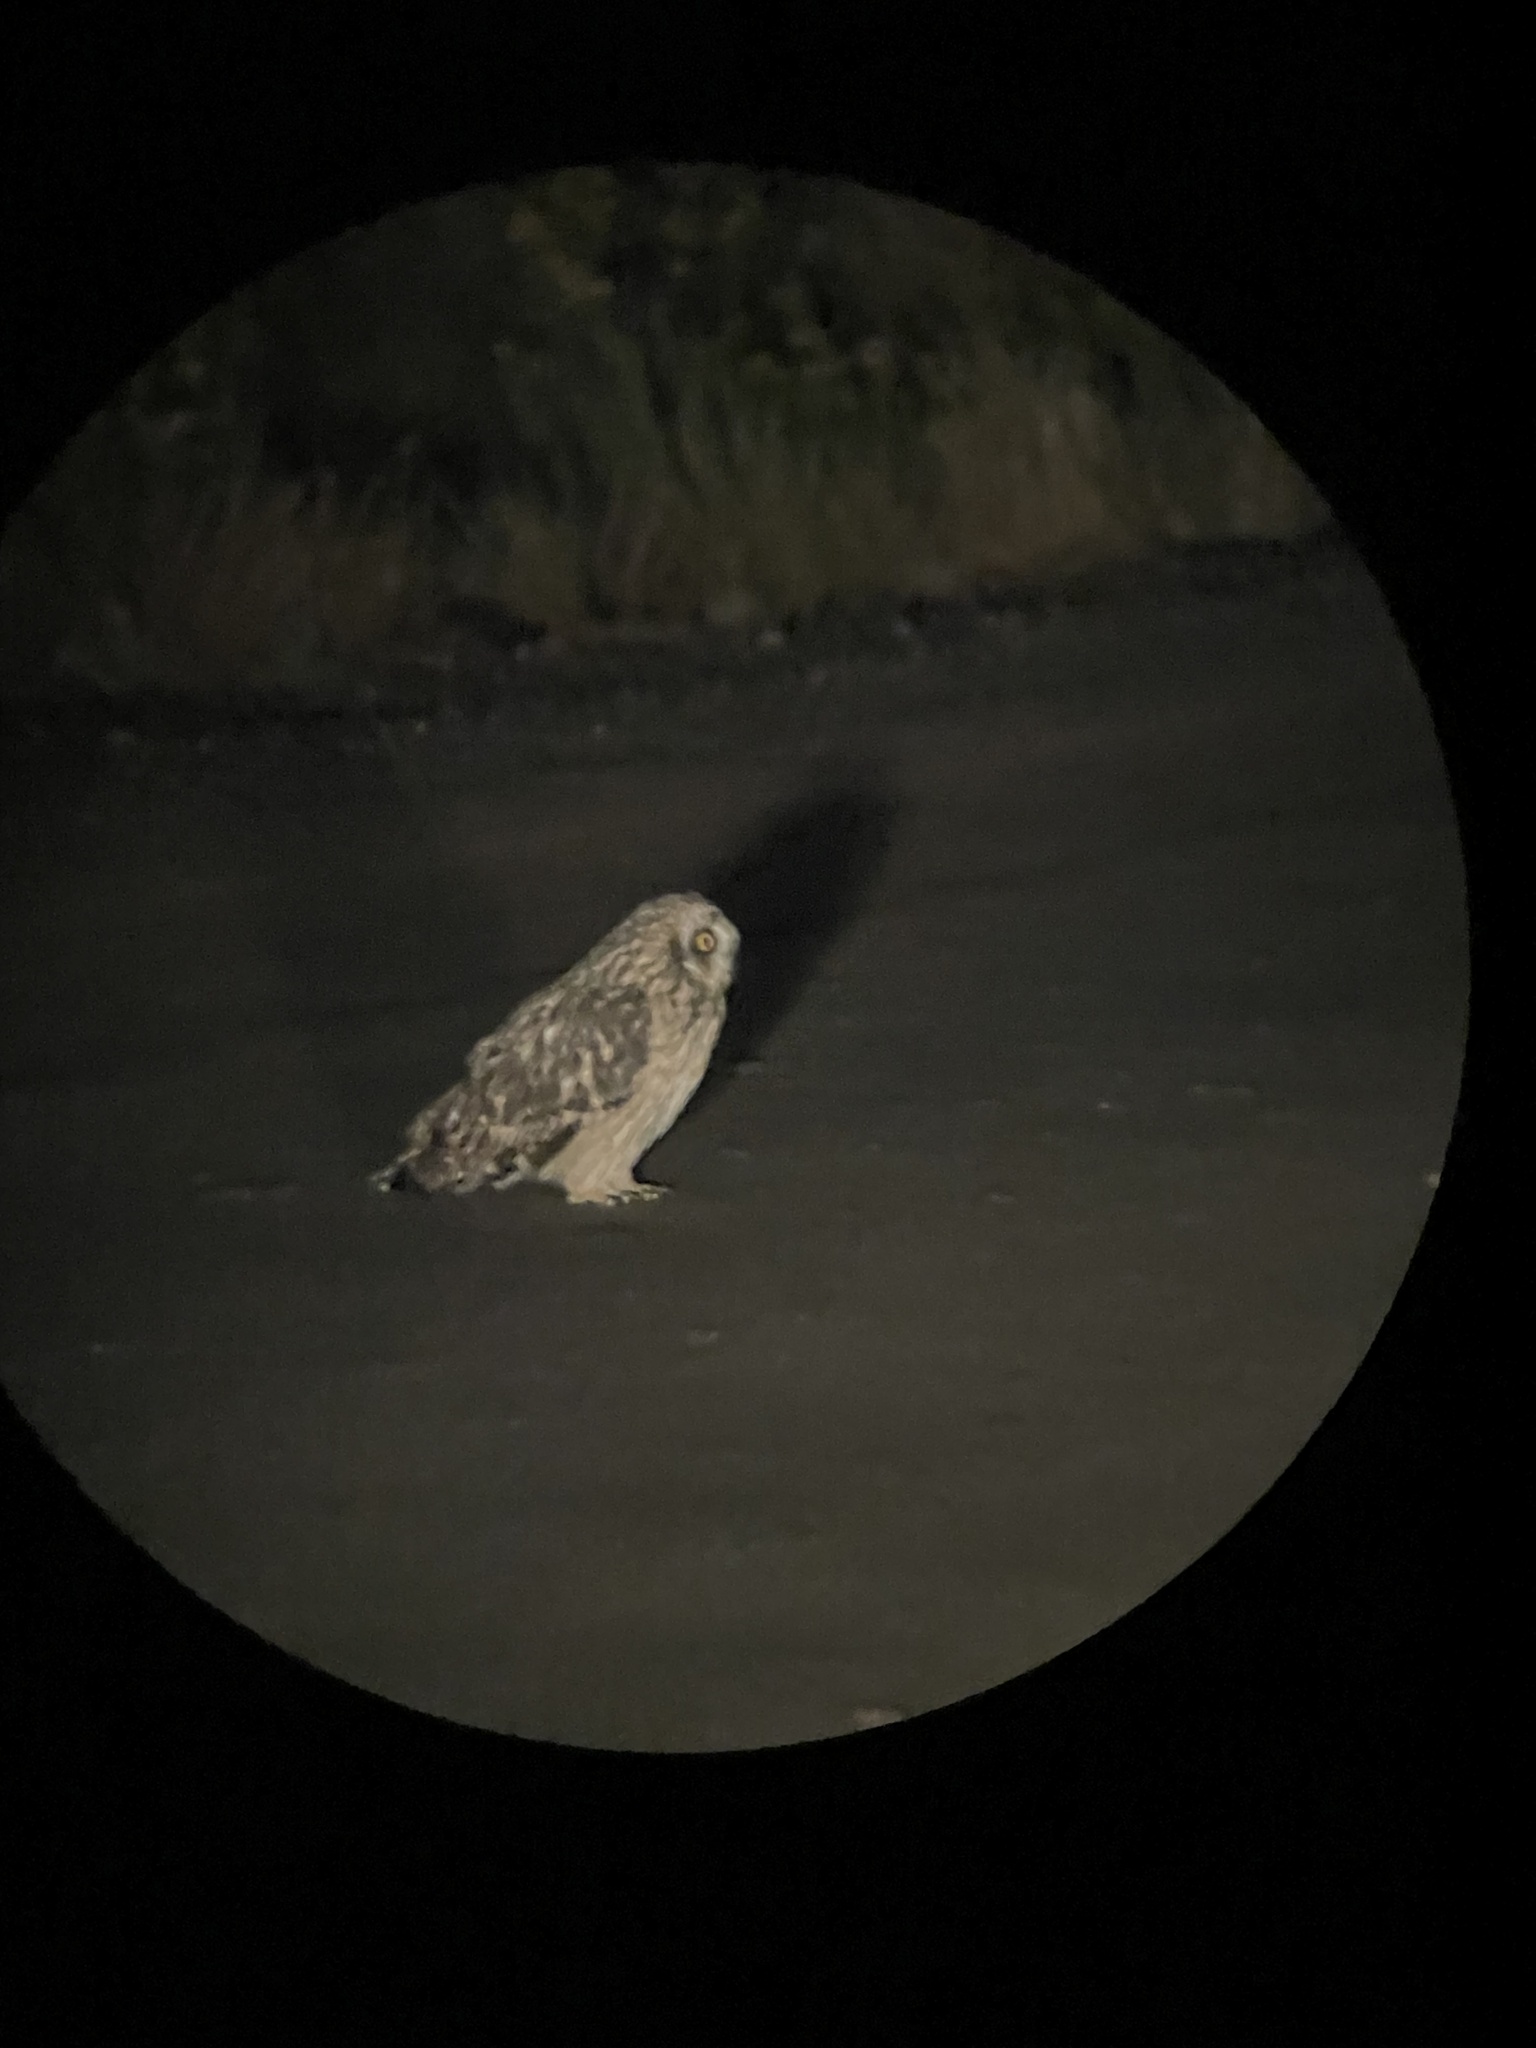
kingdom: Animalia
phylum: Chordata
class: Aves
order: Strigiformes
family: Strigidae
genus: Asio
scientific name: Asio flammeus
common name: Short-eared owl
